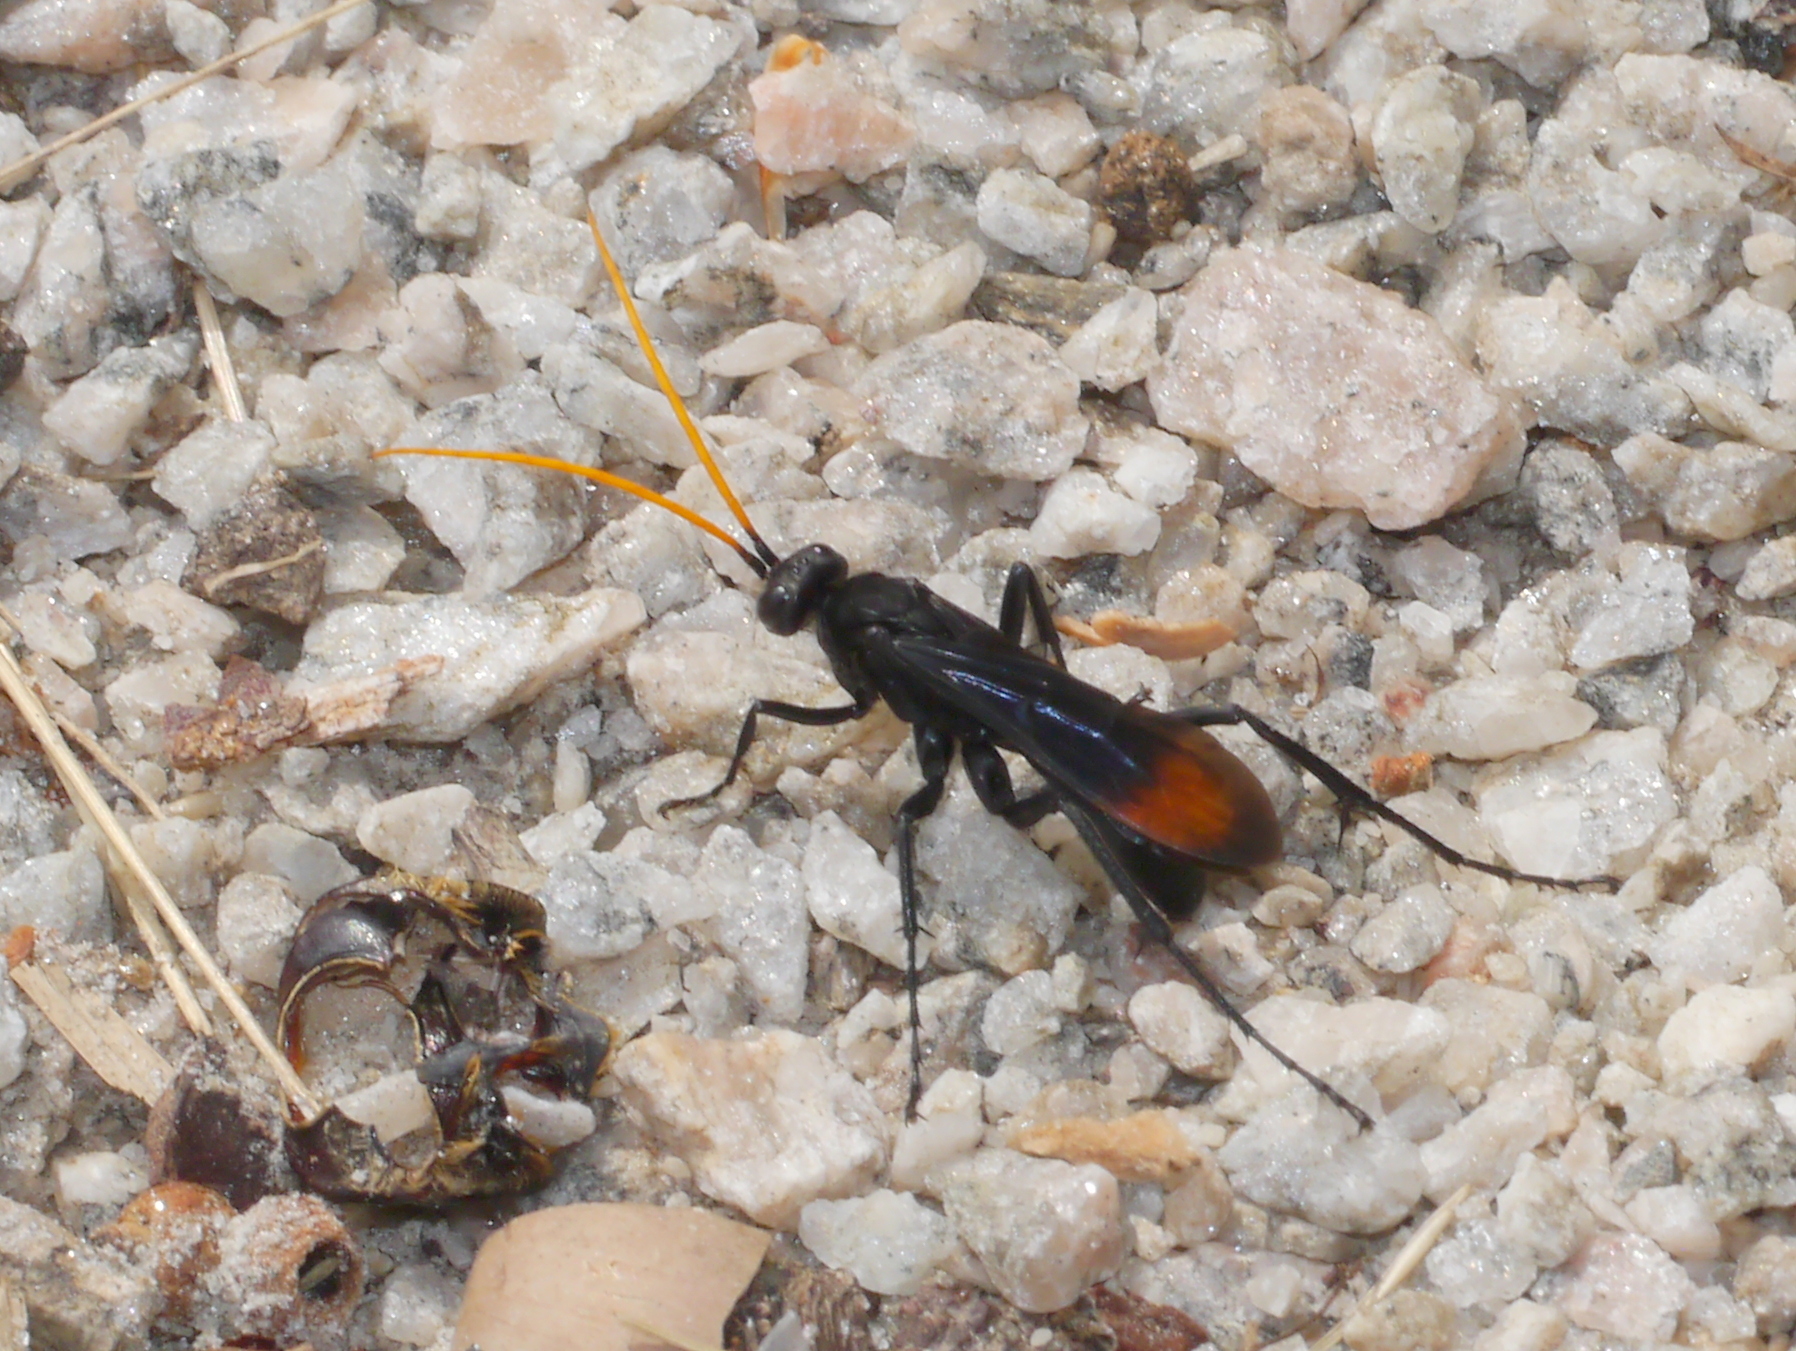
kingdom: Animalia
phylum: Arthropoda
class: Insecta
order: Hymenoptera
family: Pompilidae
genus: Entypus
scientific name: Entypus unifasciatus
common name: Eastern tawny-horned spider wasp
